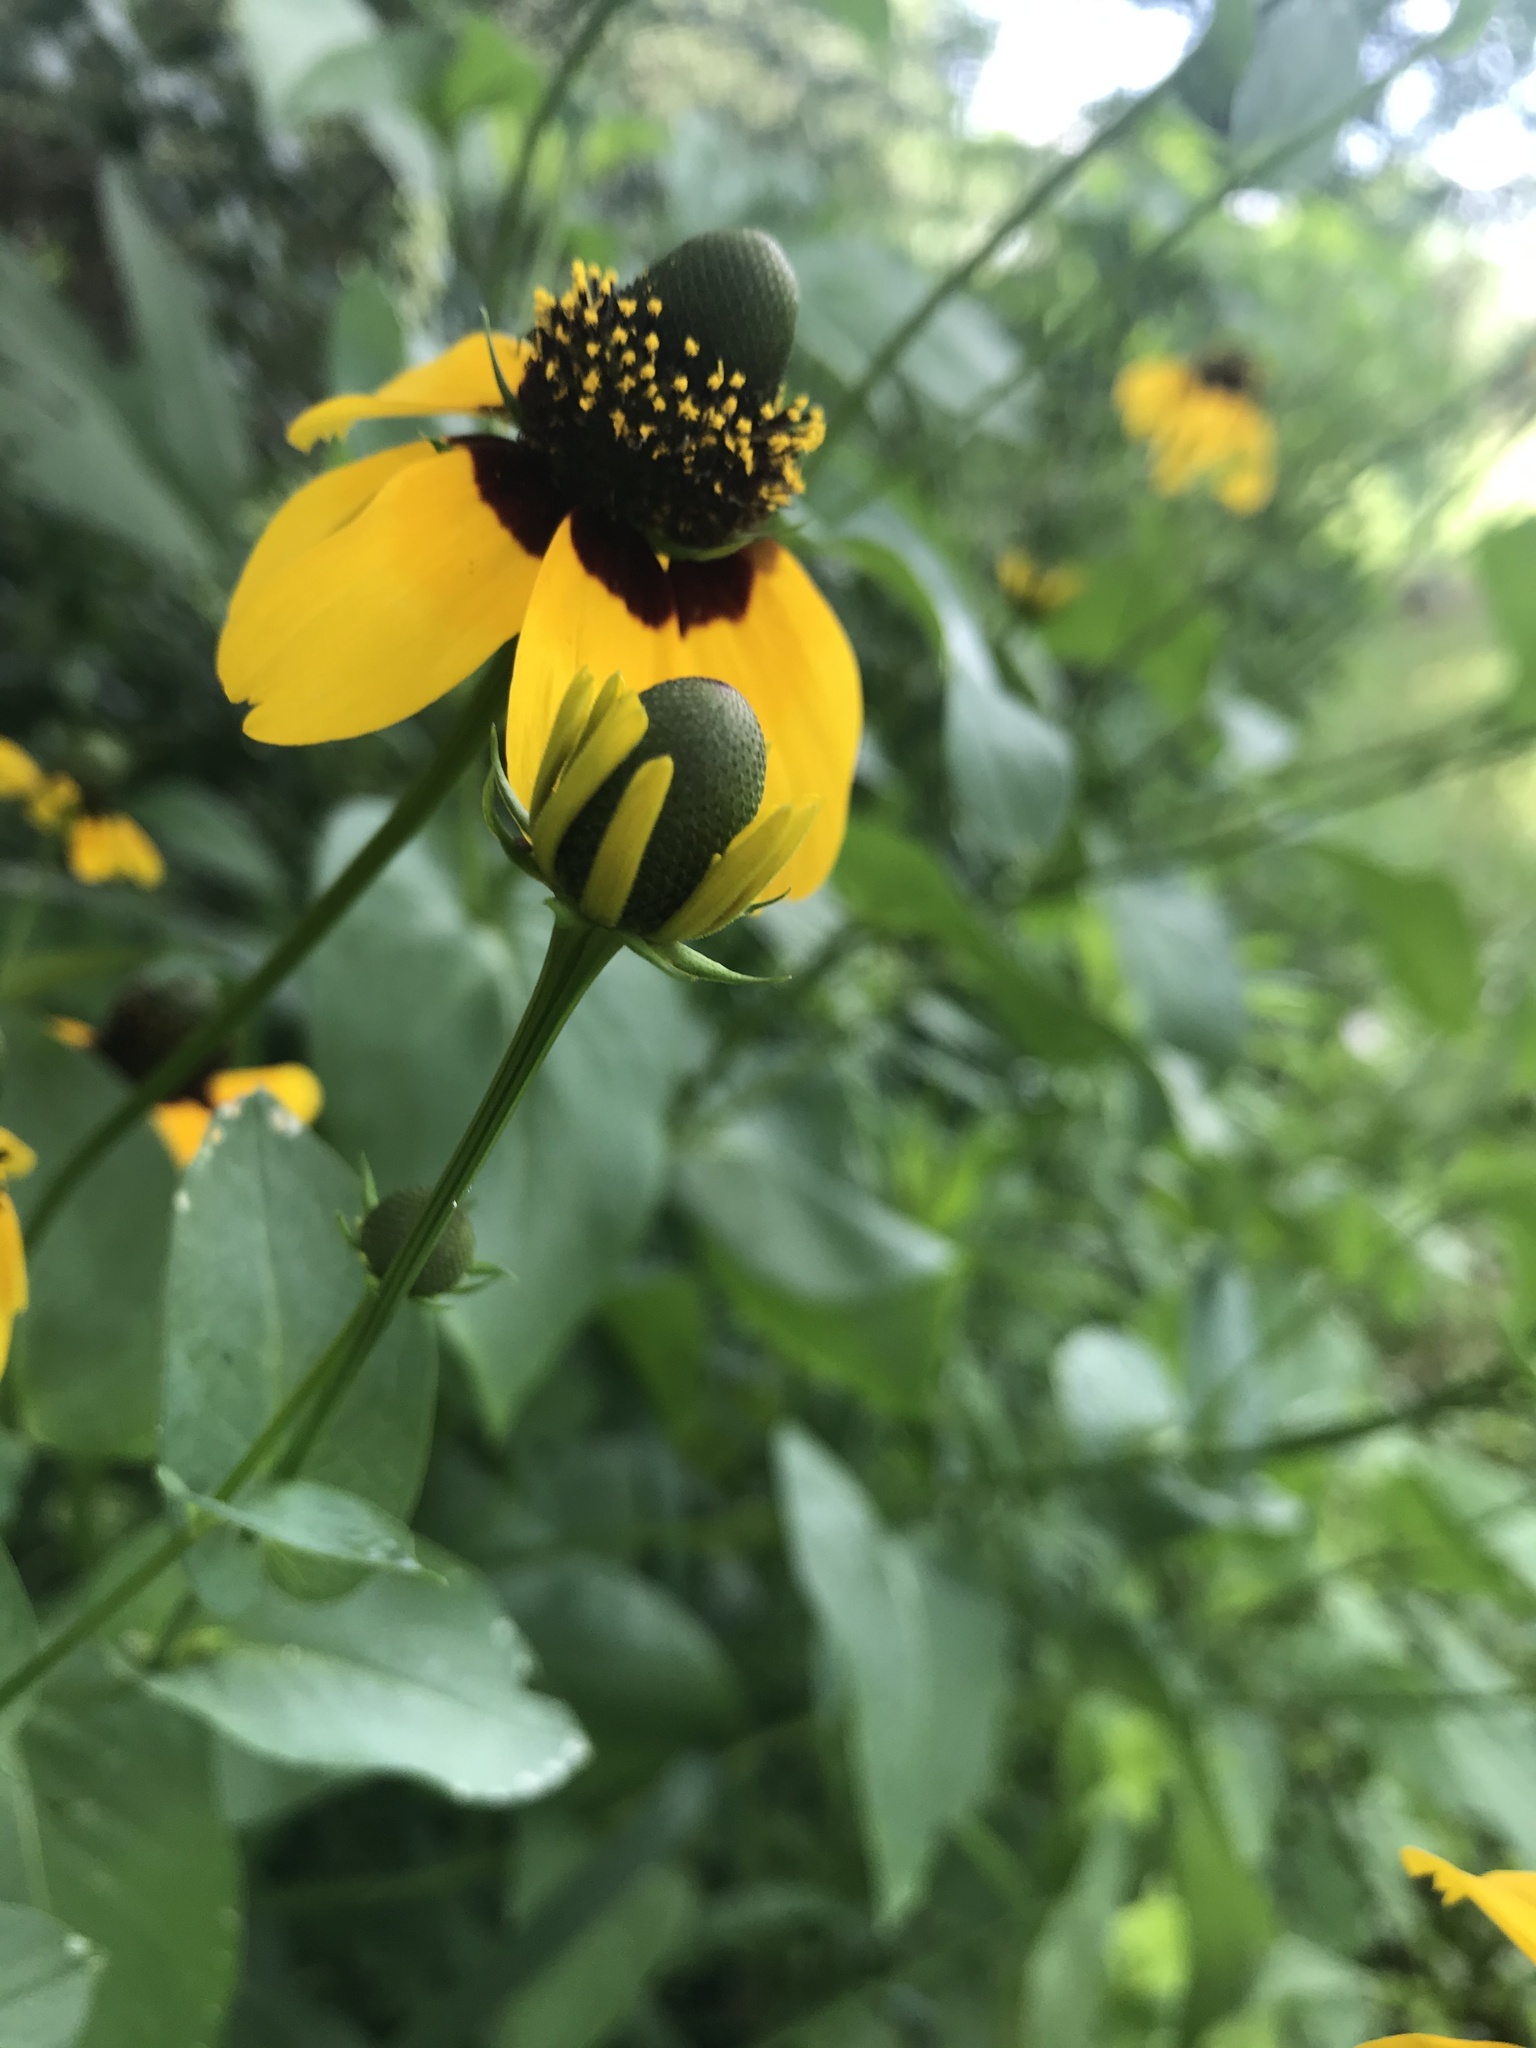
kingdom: Plantae
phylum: Tracheophyta
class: Magnoliopsida
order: Asterales
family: Asteraceae
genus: Rudbeckia
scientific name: Rudbeckia amplexicaulis
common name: Clasping-leaf coneflower
